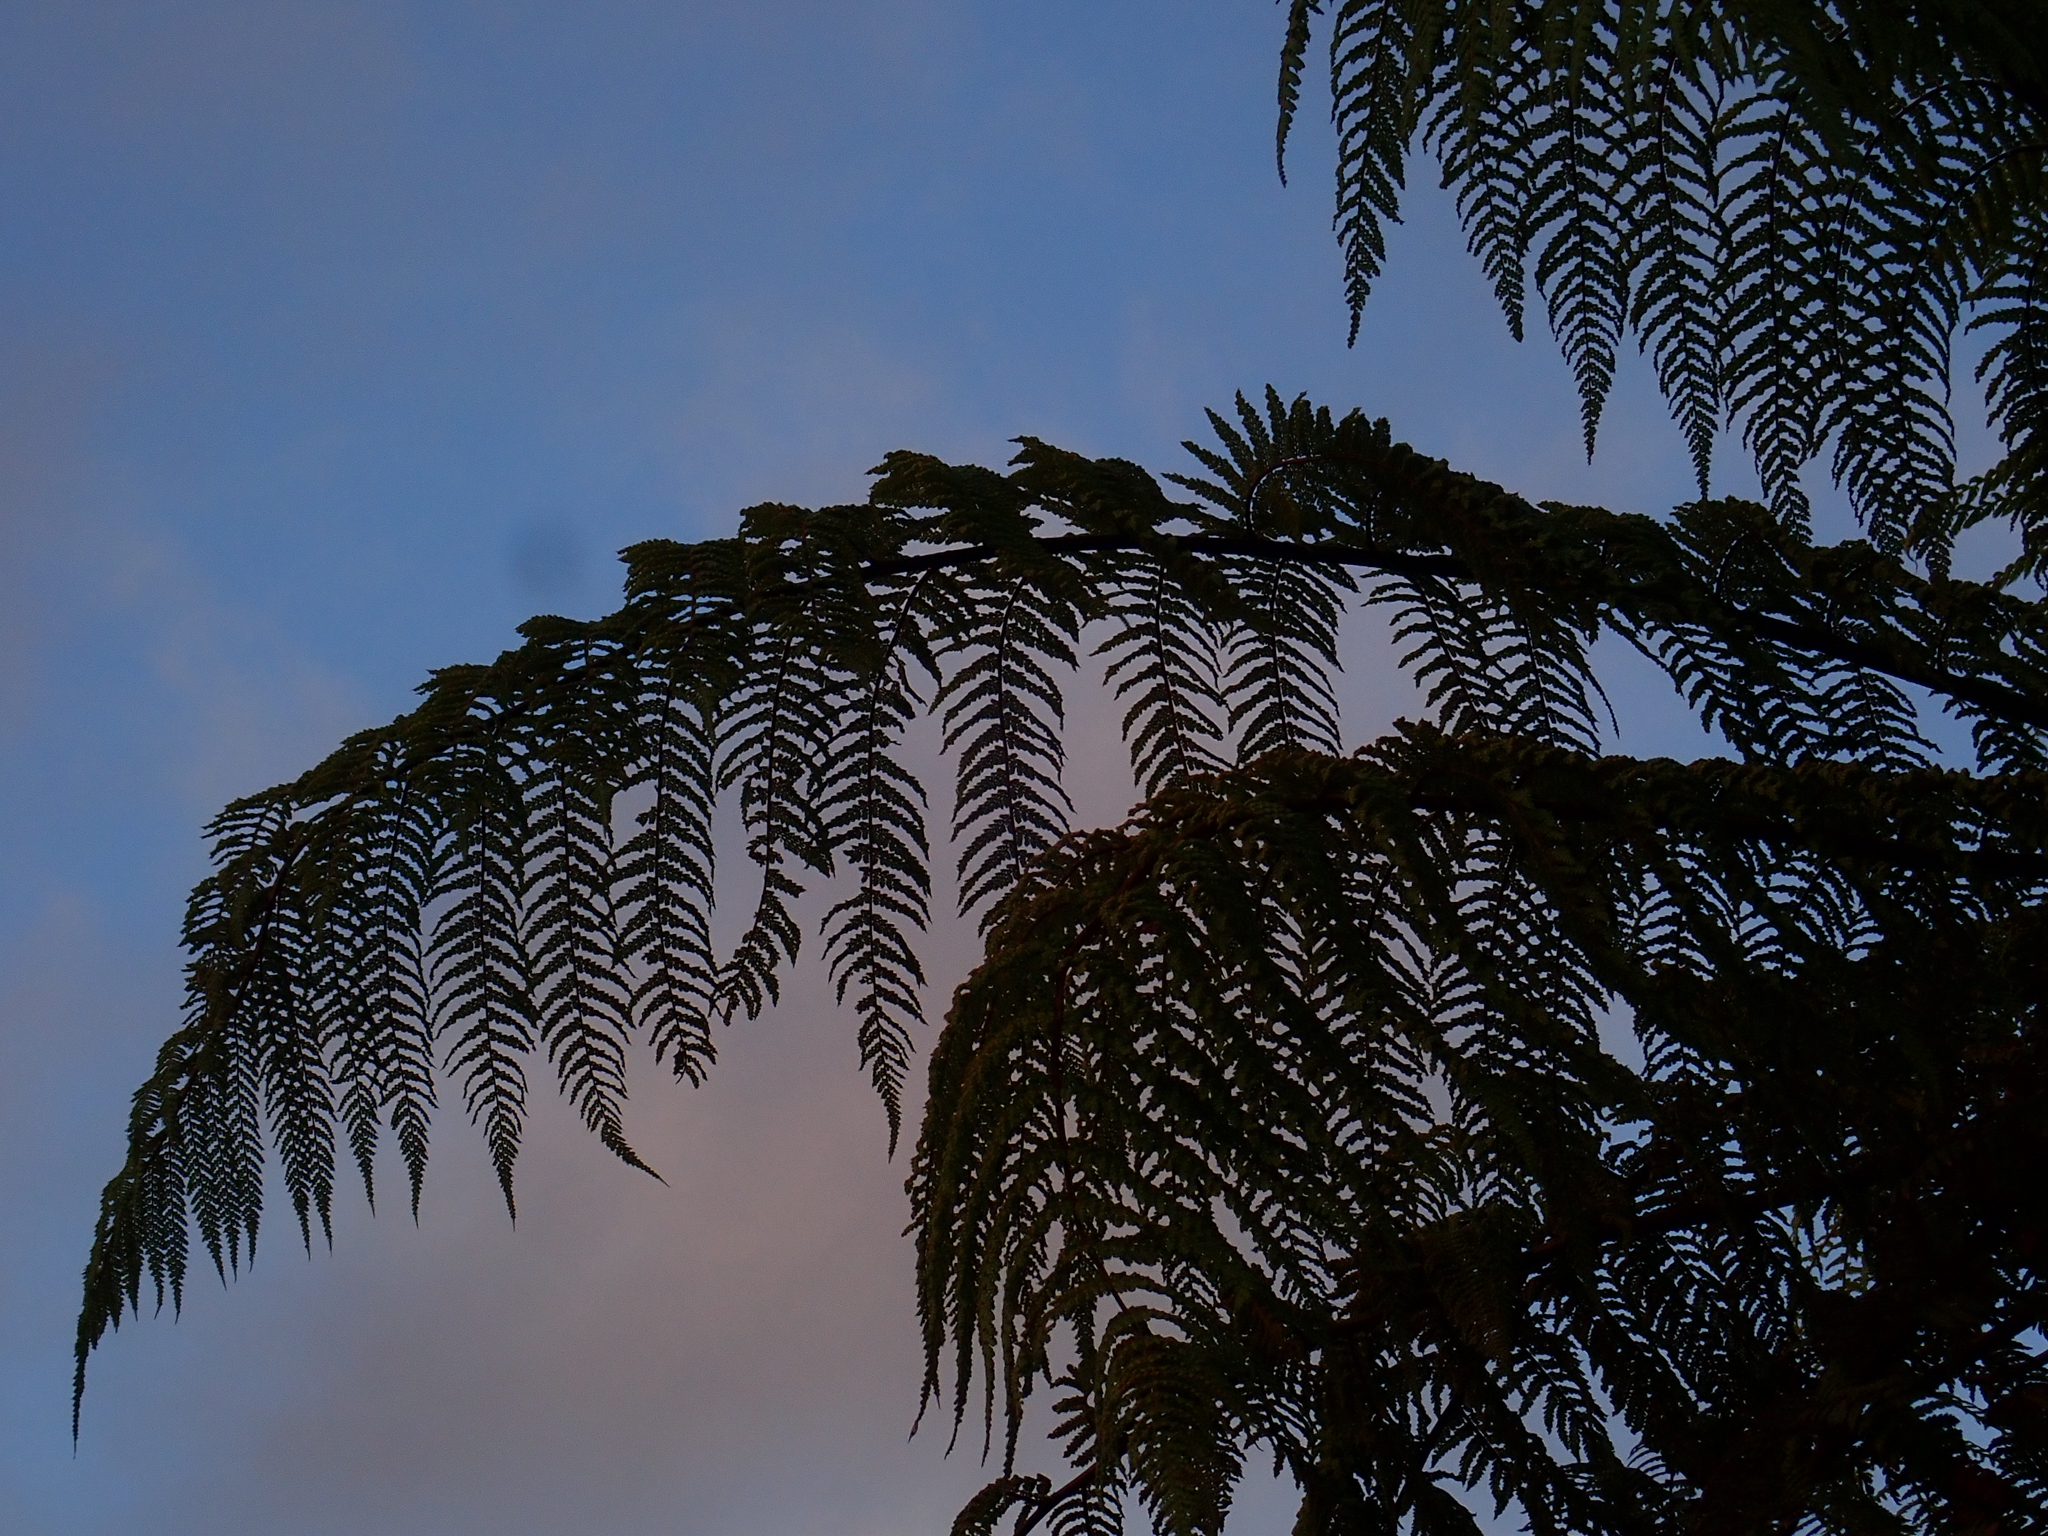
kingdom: Plantae
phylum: Tracheophyta
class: Polypodiopsida
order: Cyatheales
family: Dicksoniaceae
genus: Dicksonia
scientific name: Dicksonia squarrosa
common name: Hard treefern
